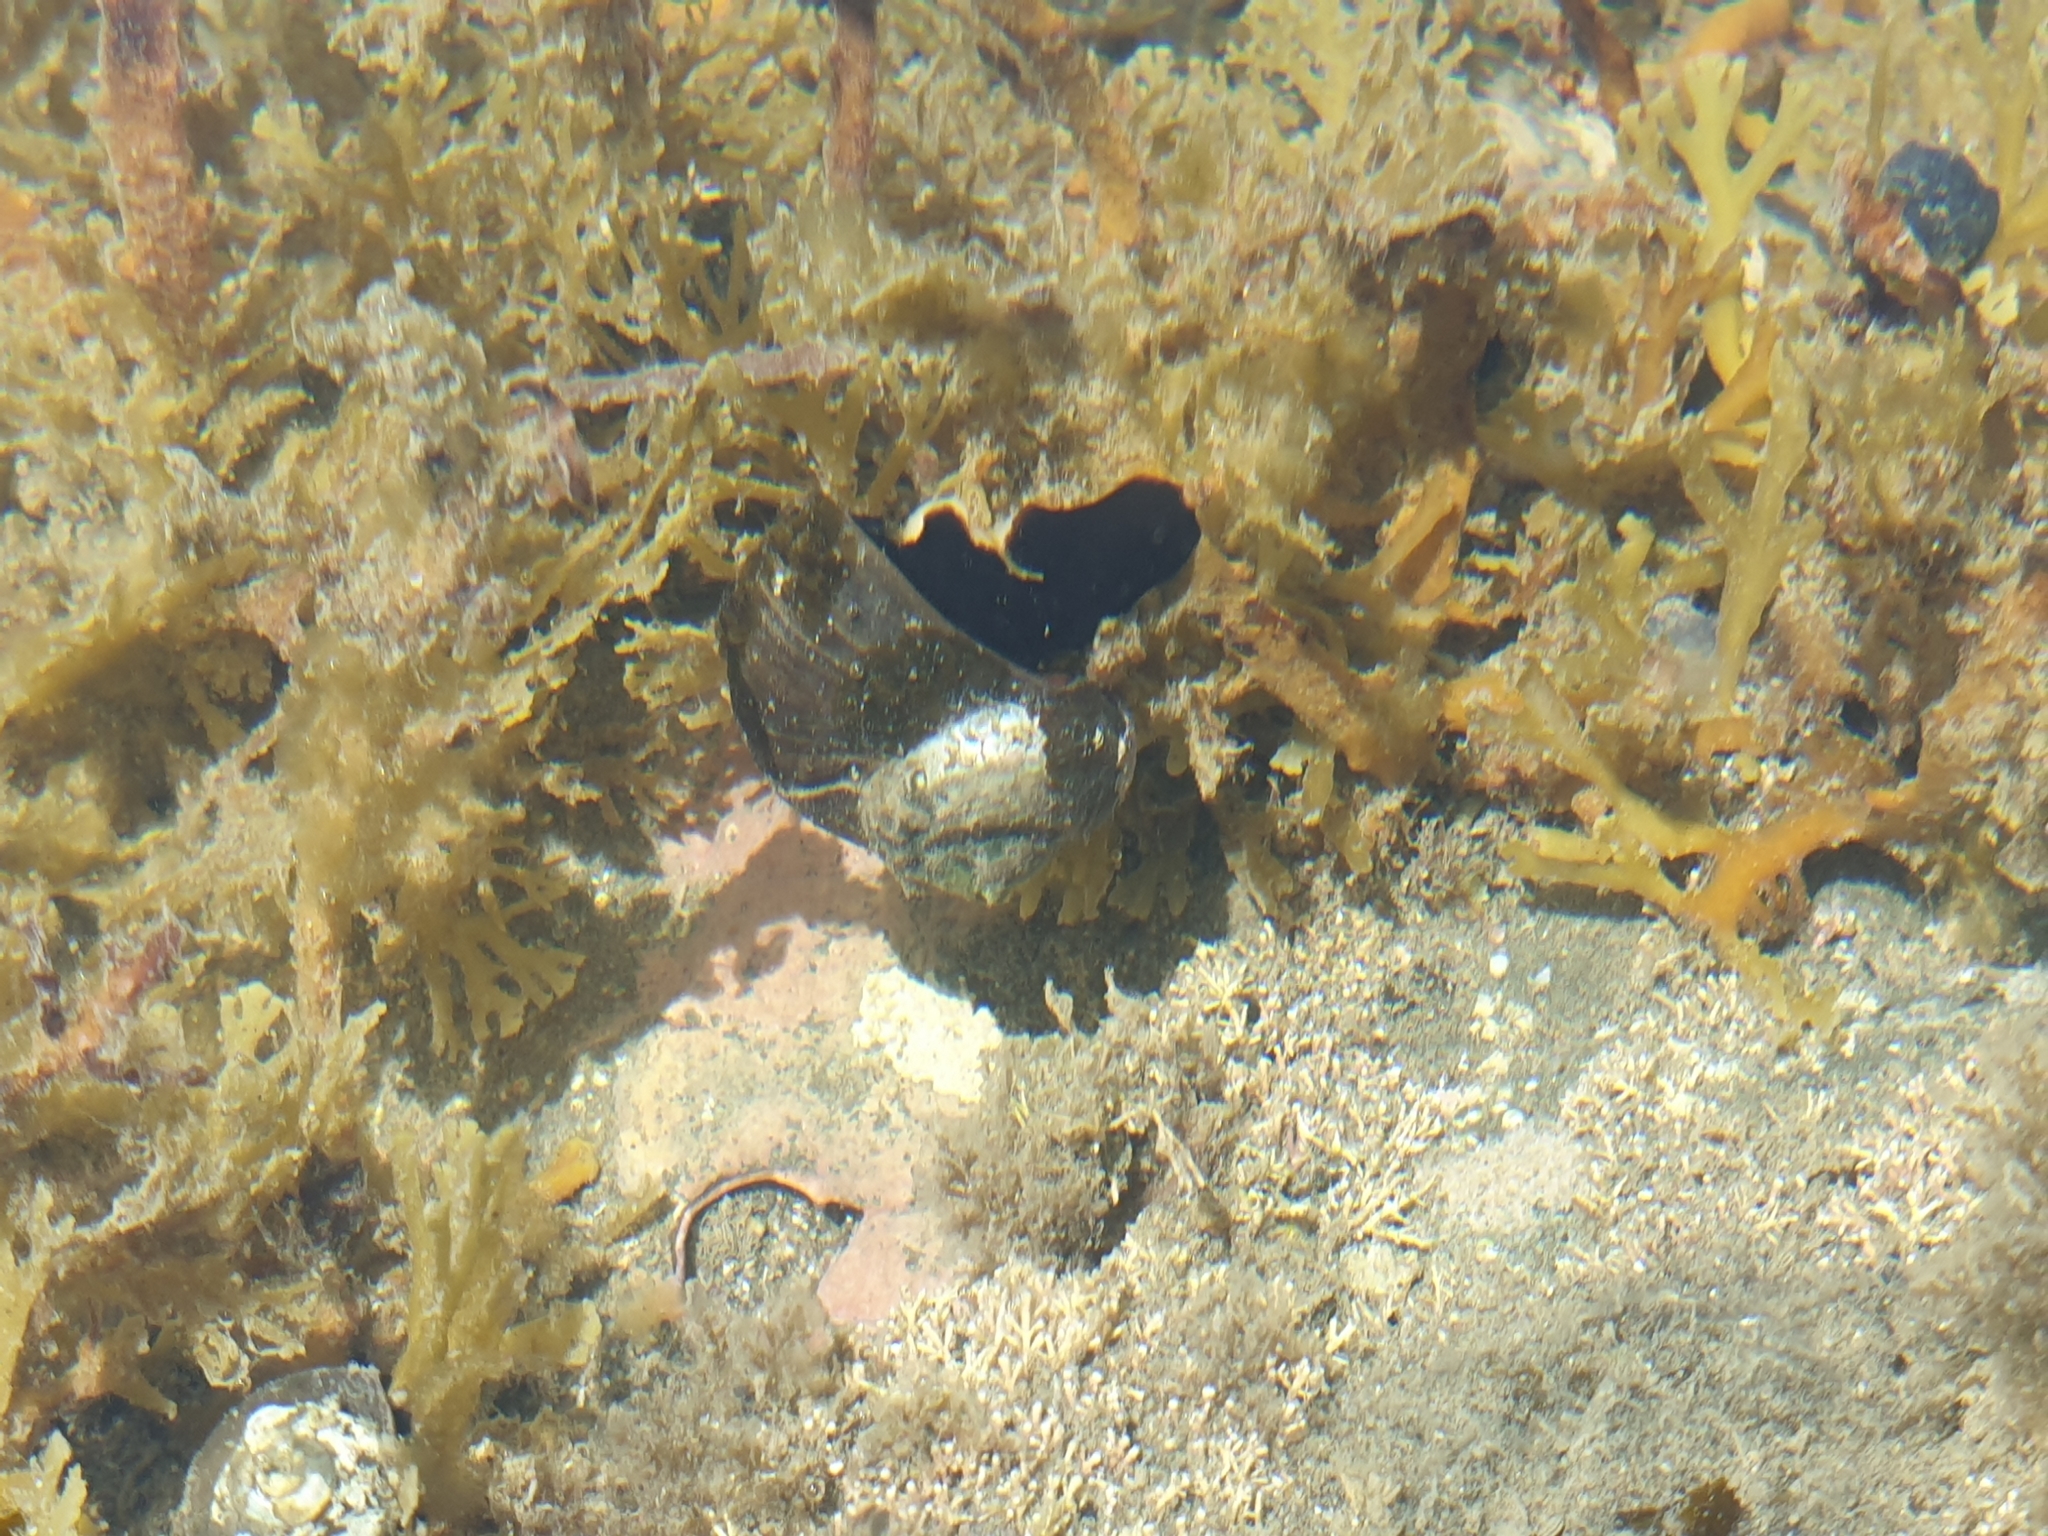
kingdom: Animalia
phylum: Mollusca
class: Gastropoda
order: Trochida
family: Turbinidae
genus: Lunella
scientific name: Lunella smaragda
